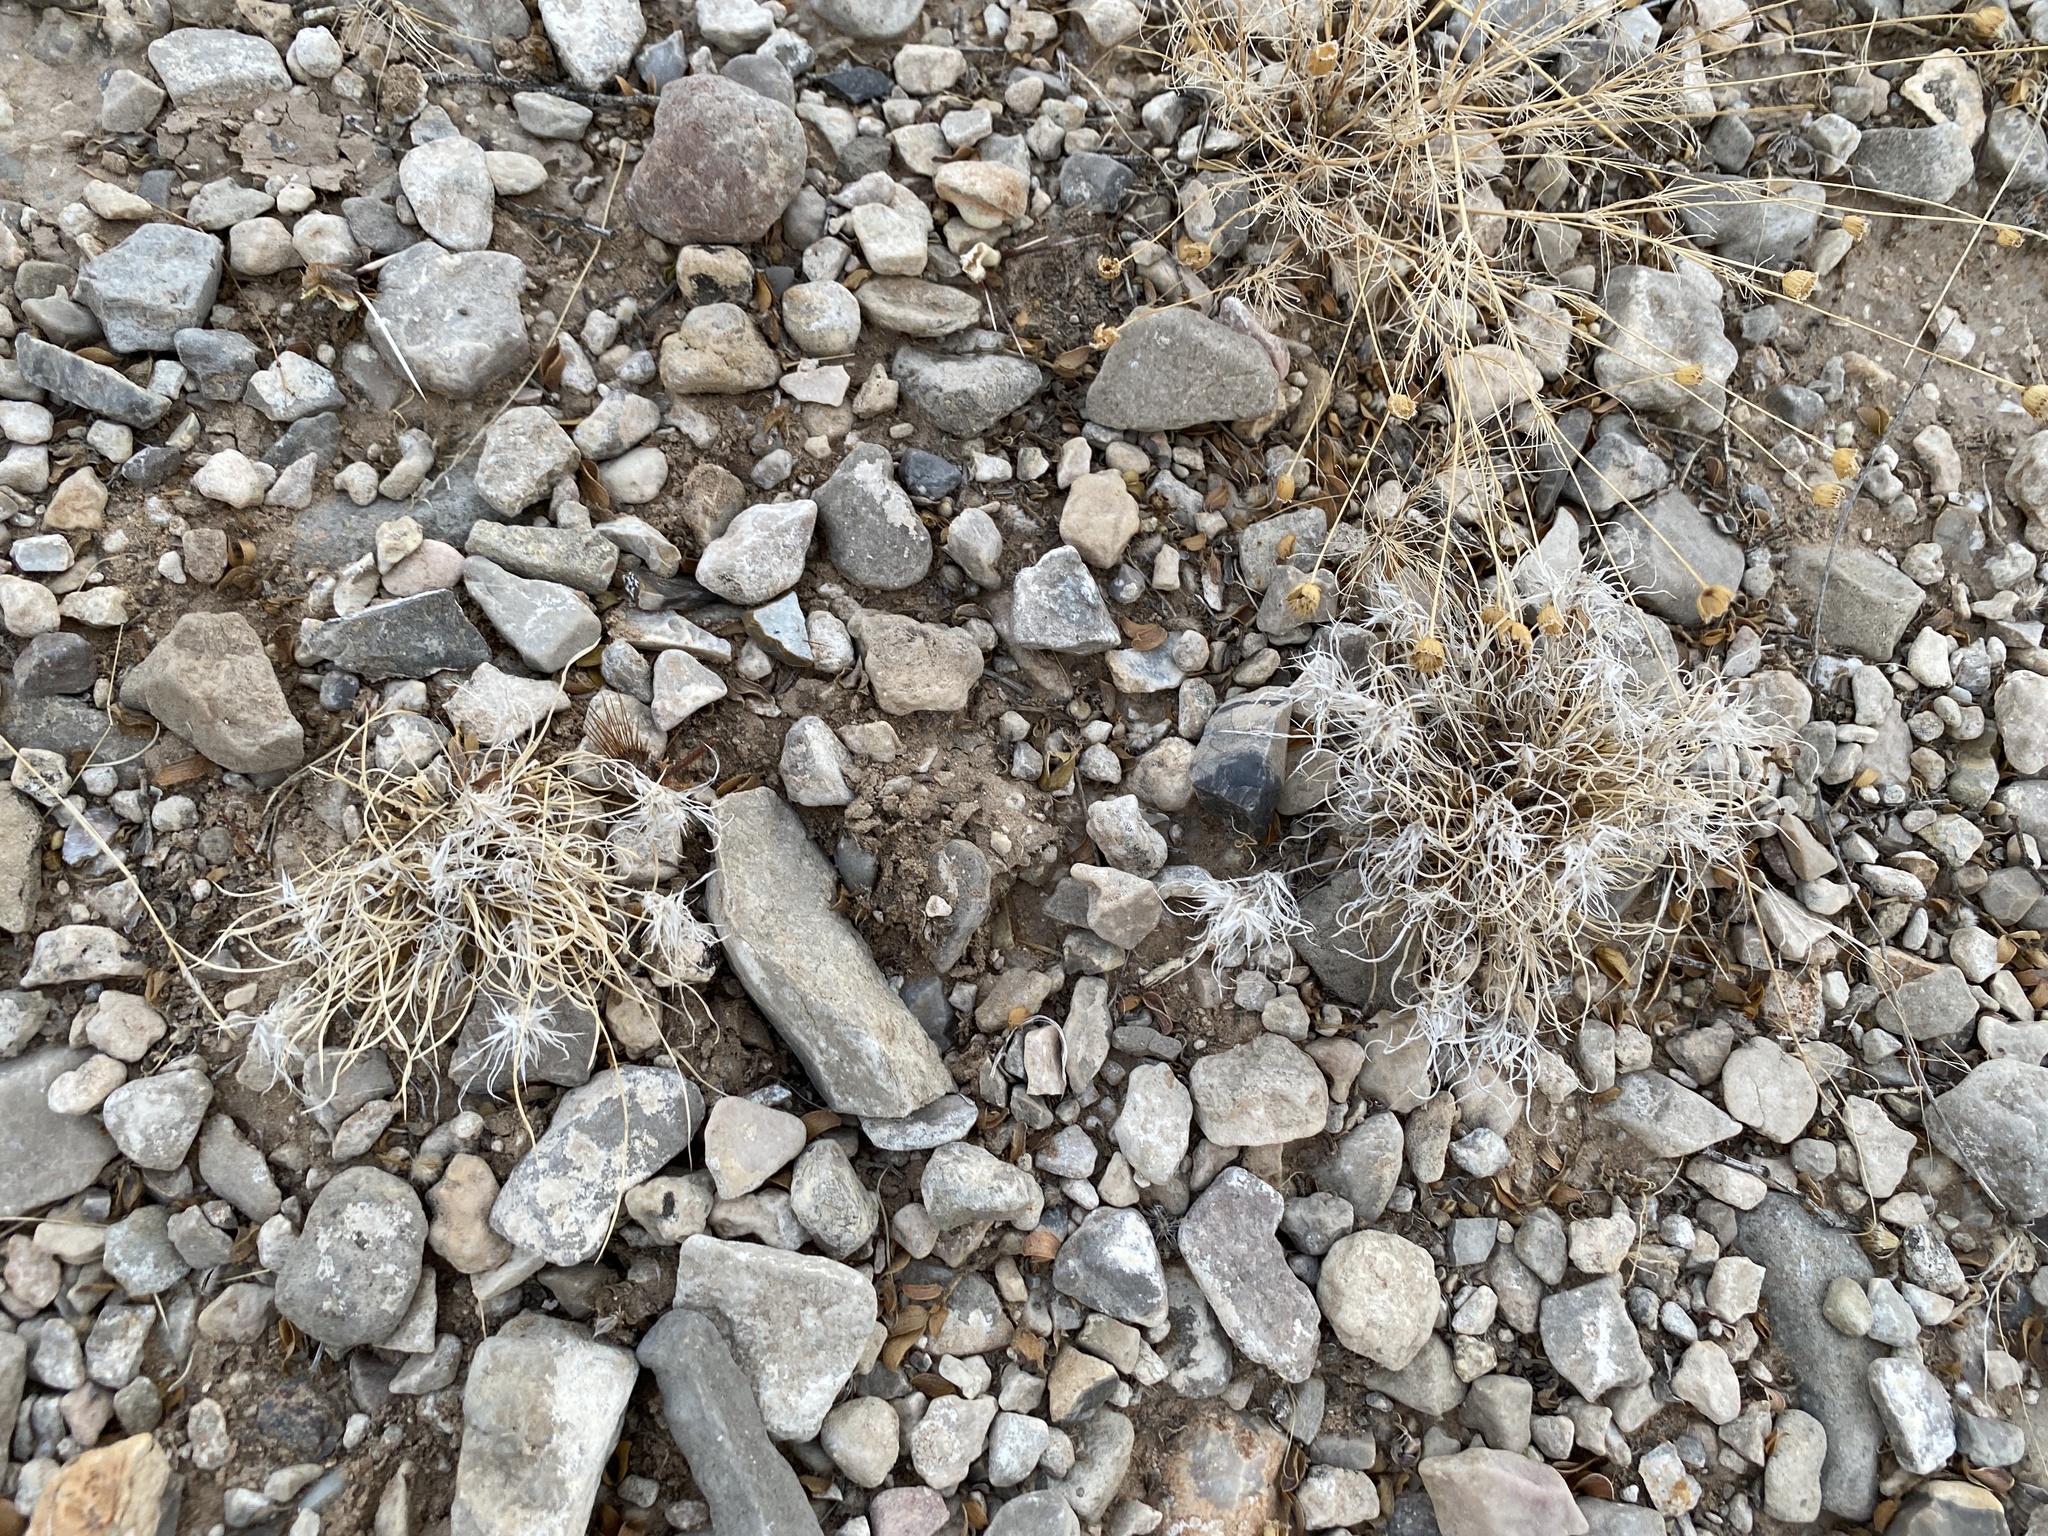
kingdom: Plantae
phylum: Tracheophyta
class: Liliopsida
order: Poales
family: Poaceae
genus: Dasyochloa
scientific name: Dasyochloa pulchella
